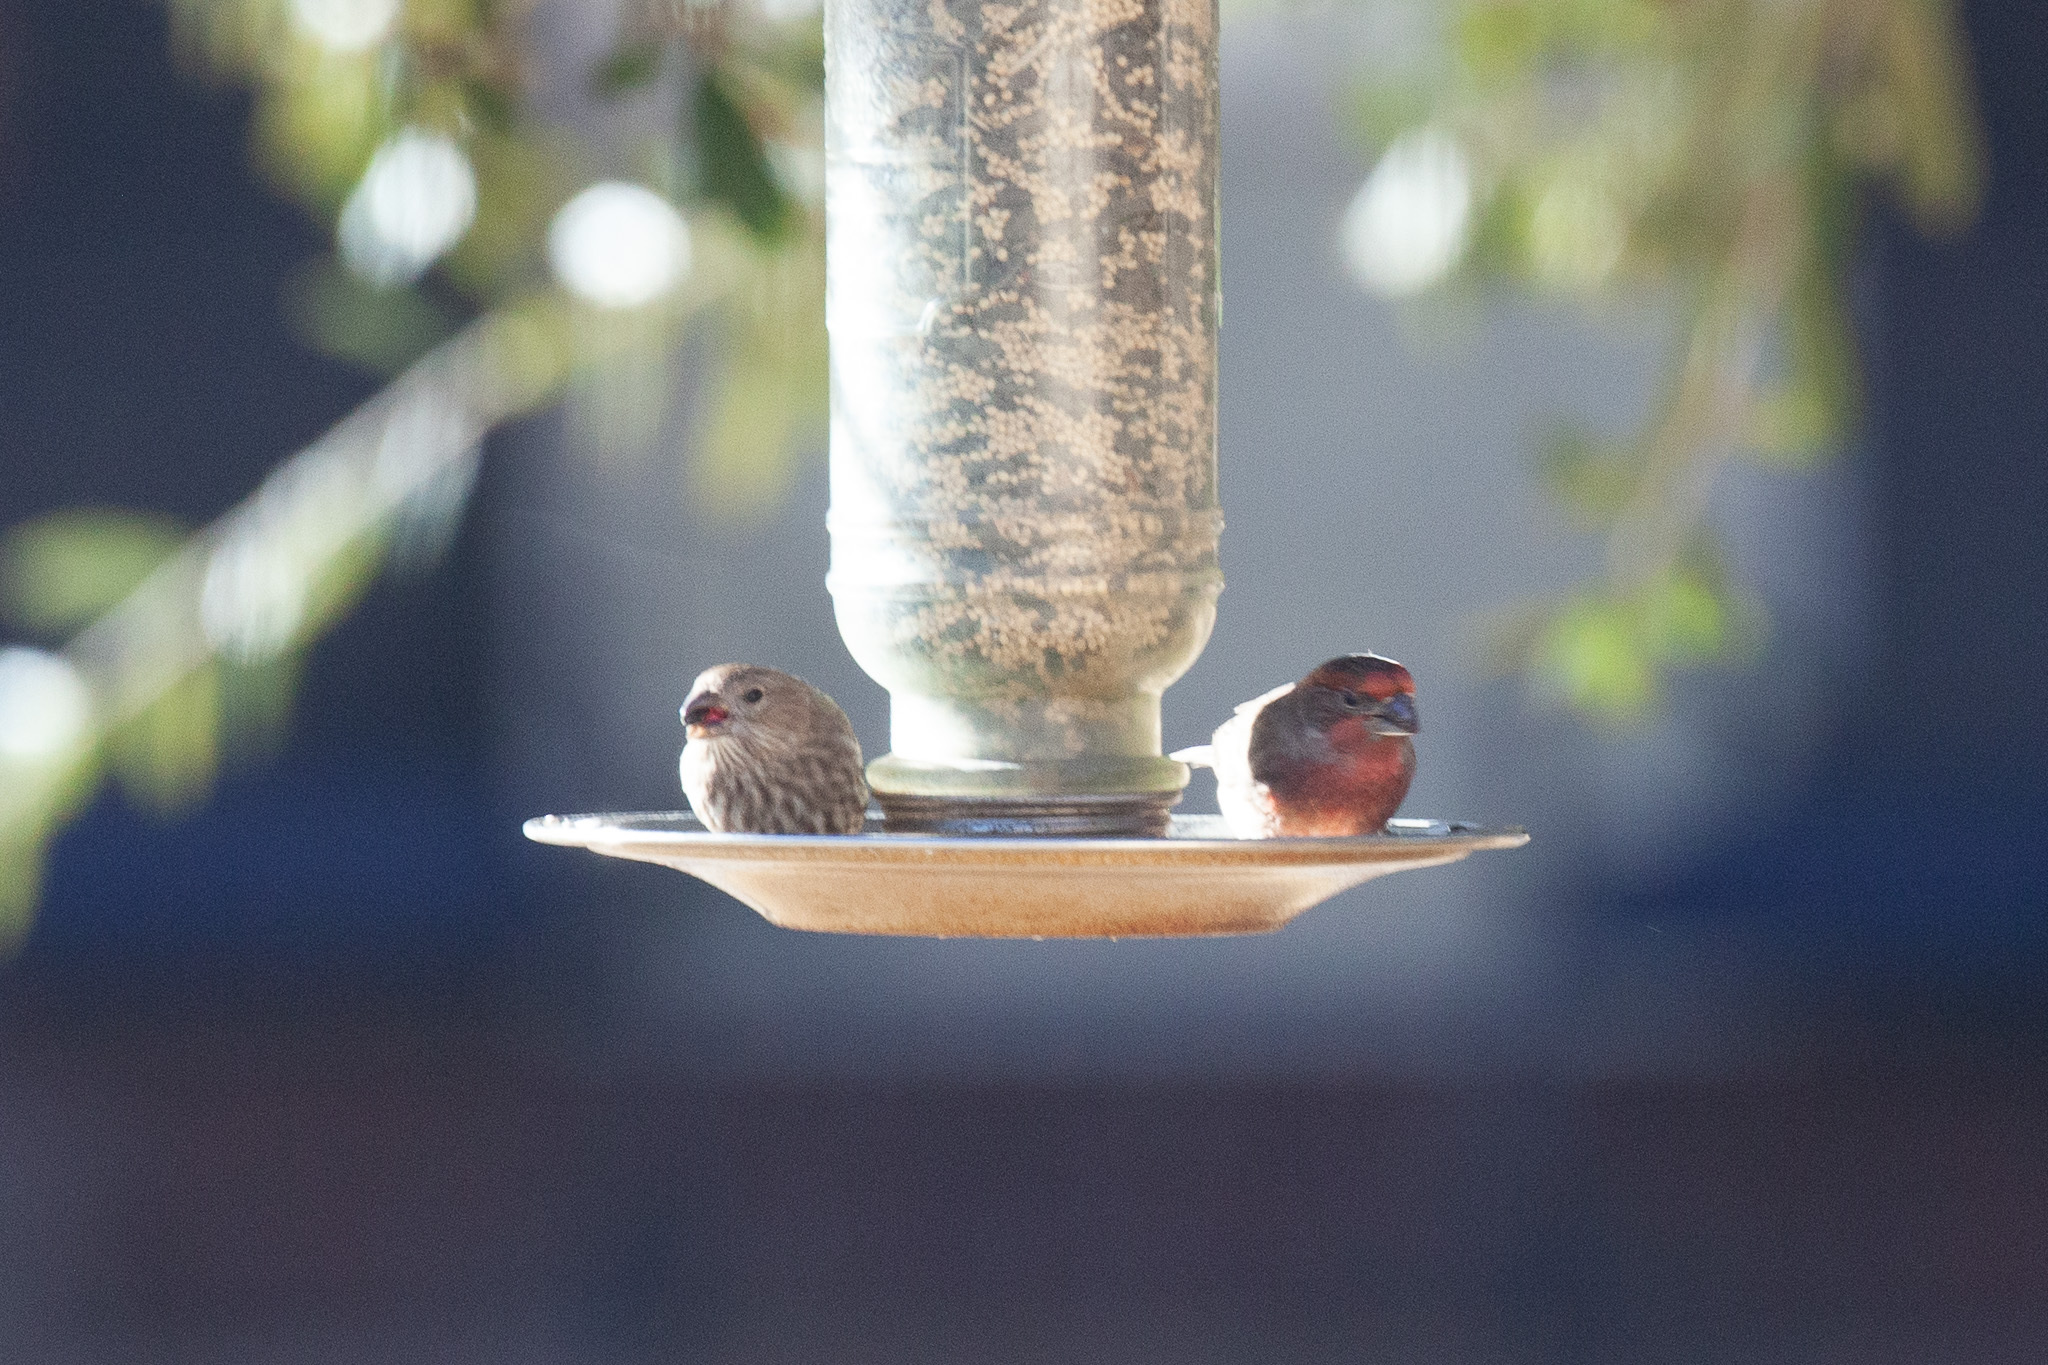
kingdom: Animalia
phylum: Chordata
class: Aves
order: Passeriformes
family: Fringillidae
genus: Haemorhous
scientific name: Haemorhous mexicanus
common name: House finch
